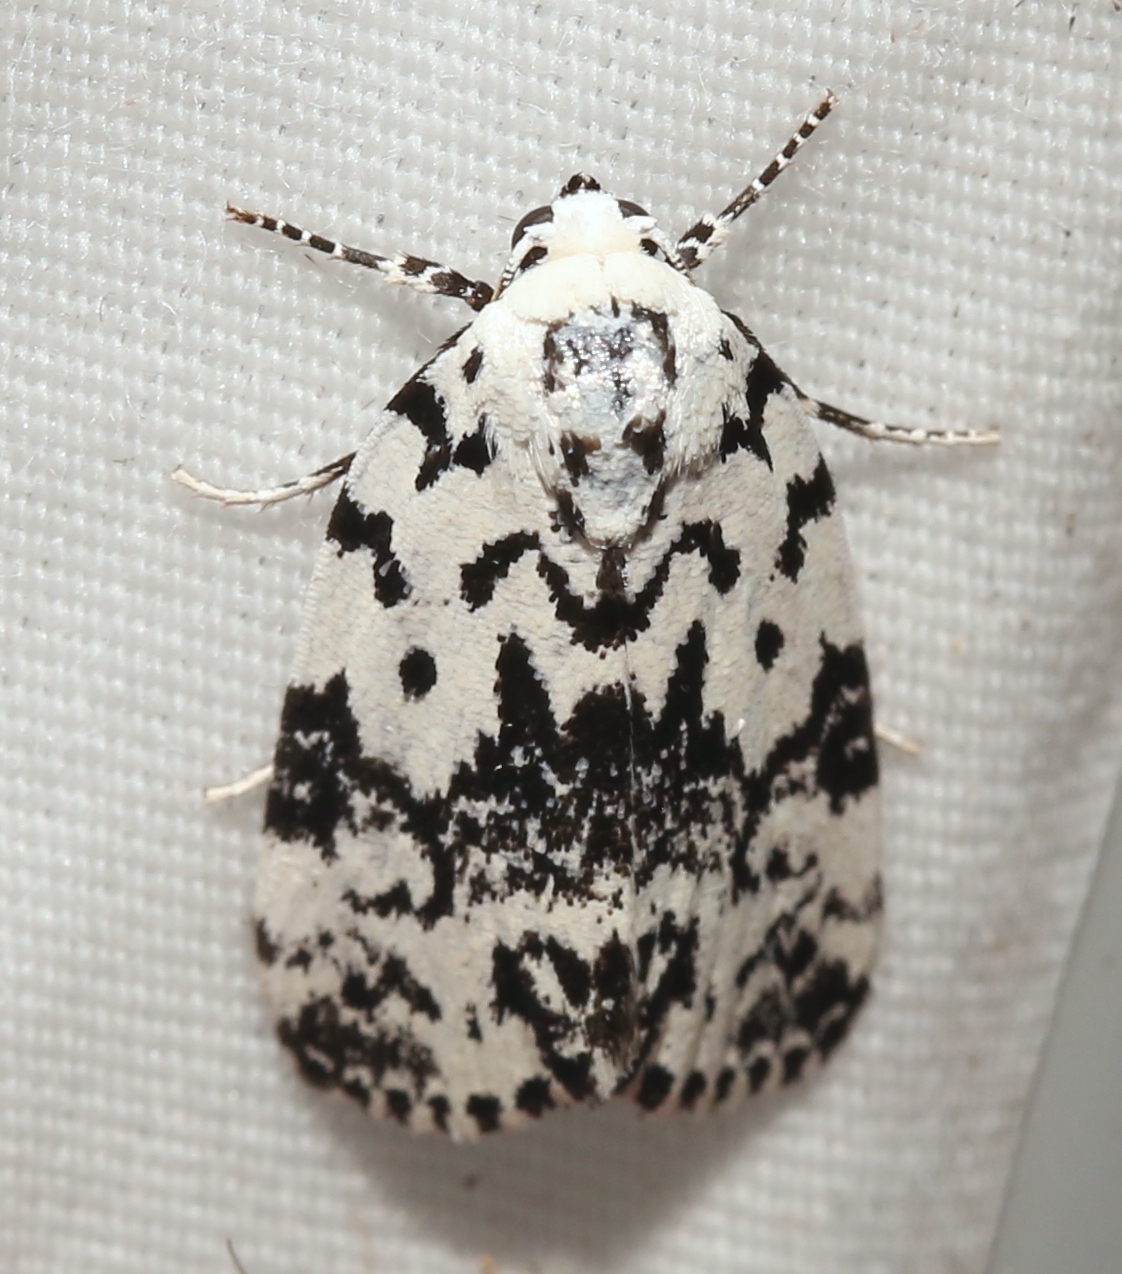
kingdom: Animalia
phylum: Arthropoda
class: Insecta
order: Lepidoptera
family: Noctuidae
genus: Polygrammate
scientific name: Polygrammate hebraeicum
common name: Hebrew moth
